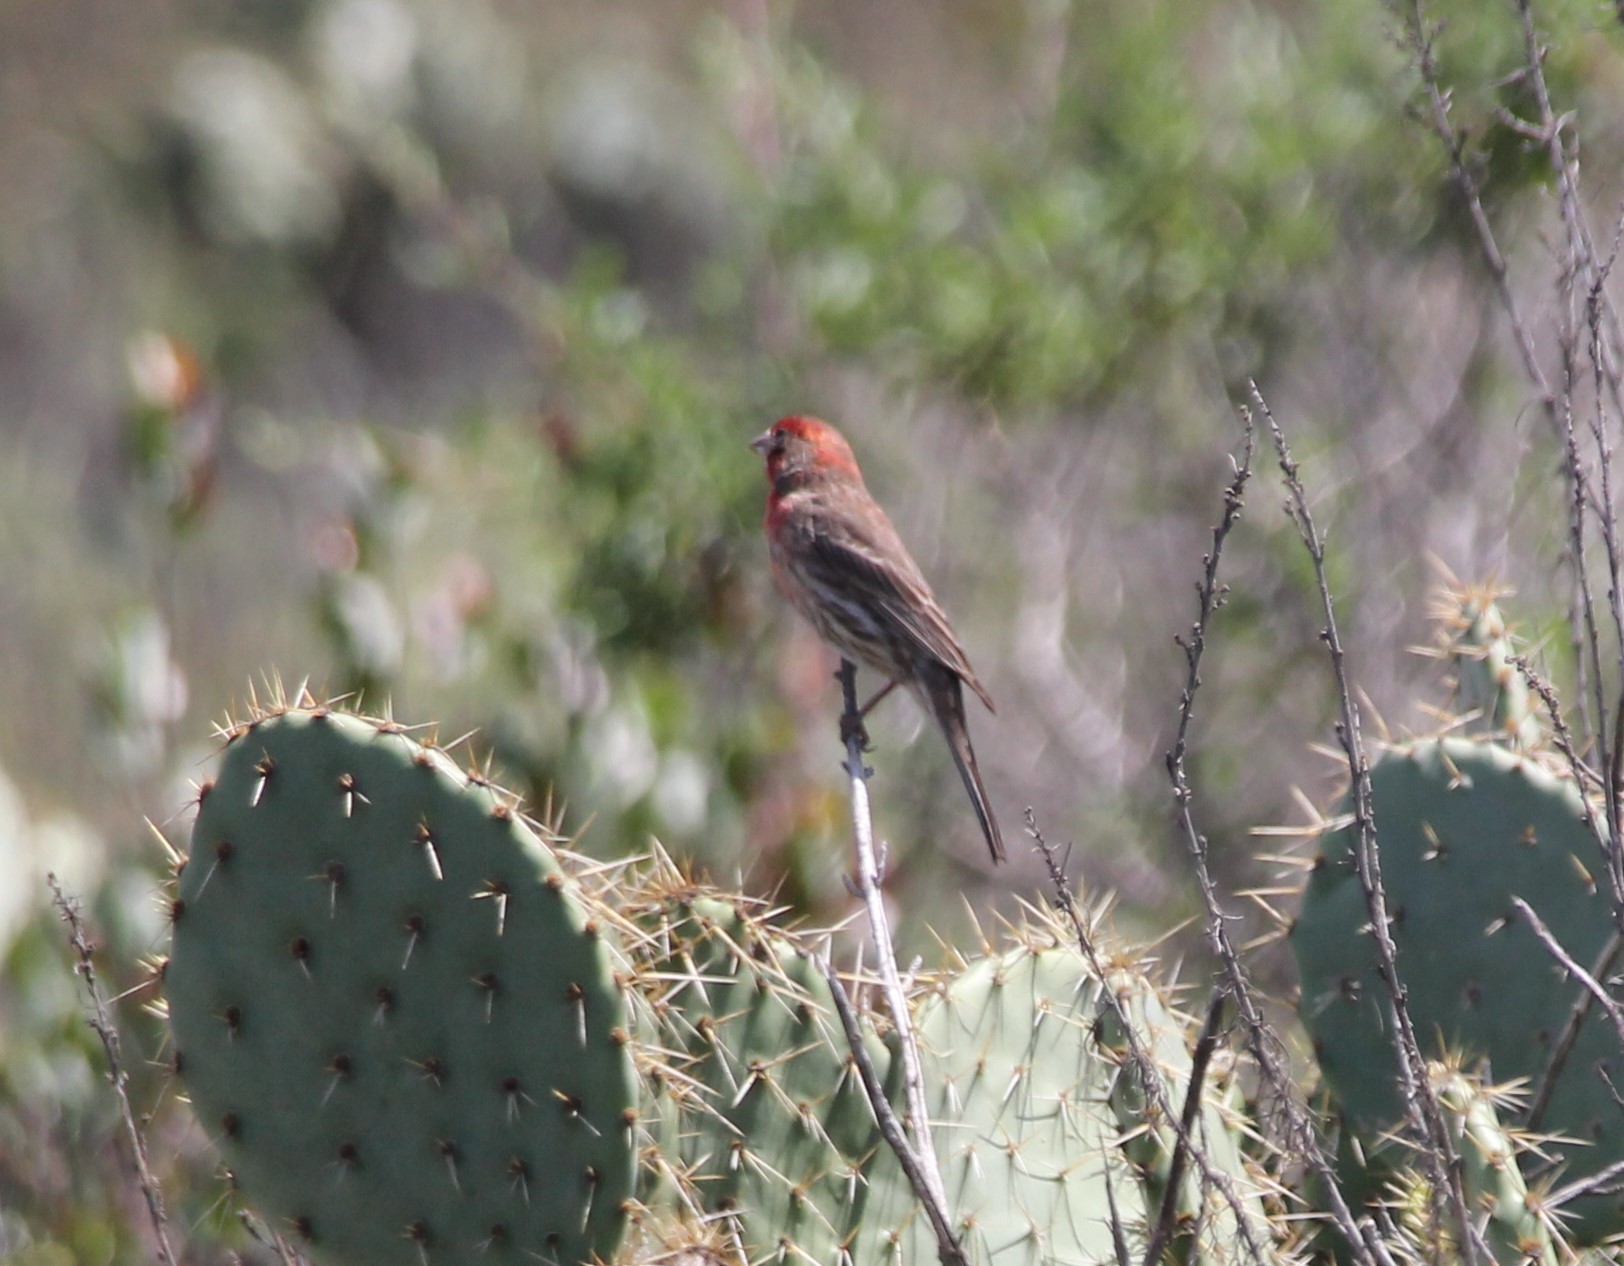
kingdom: Animalia
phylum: Chordata
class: Aves
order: Passeriformes
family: Fringillidae
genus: Haemorhous
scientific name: Haemorhous mexicanus
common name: House finch
